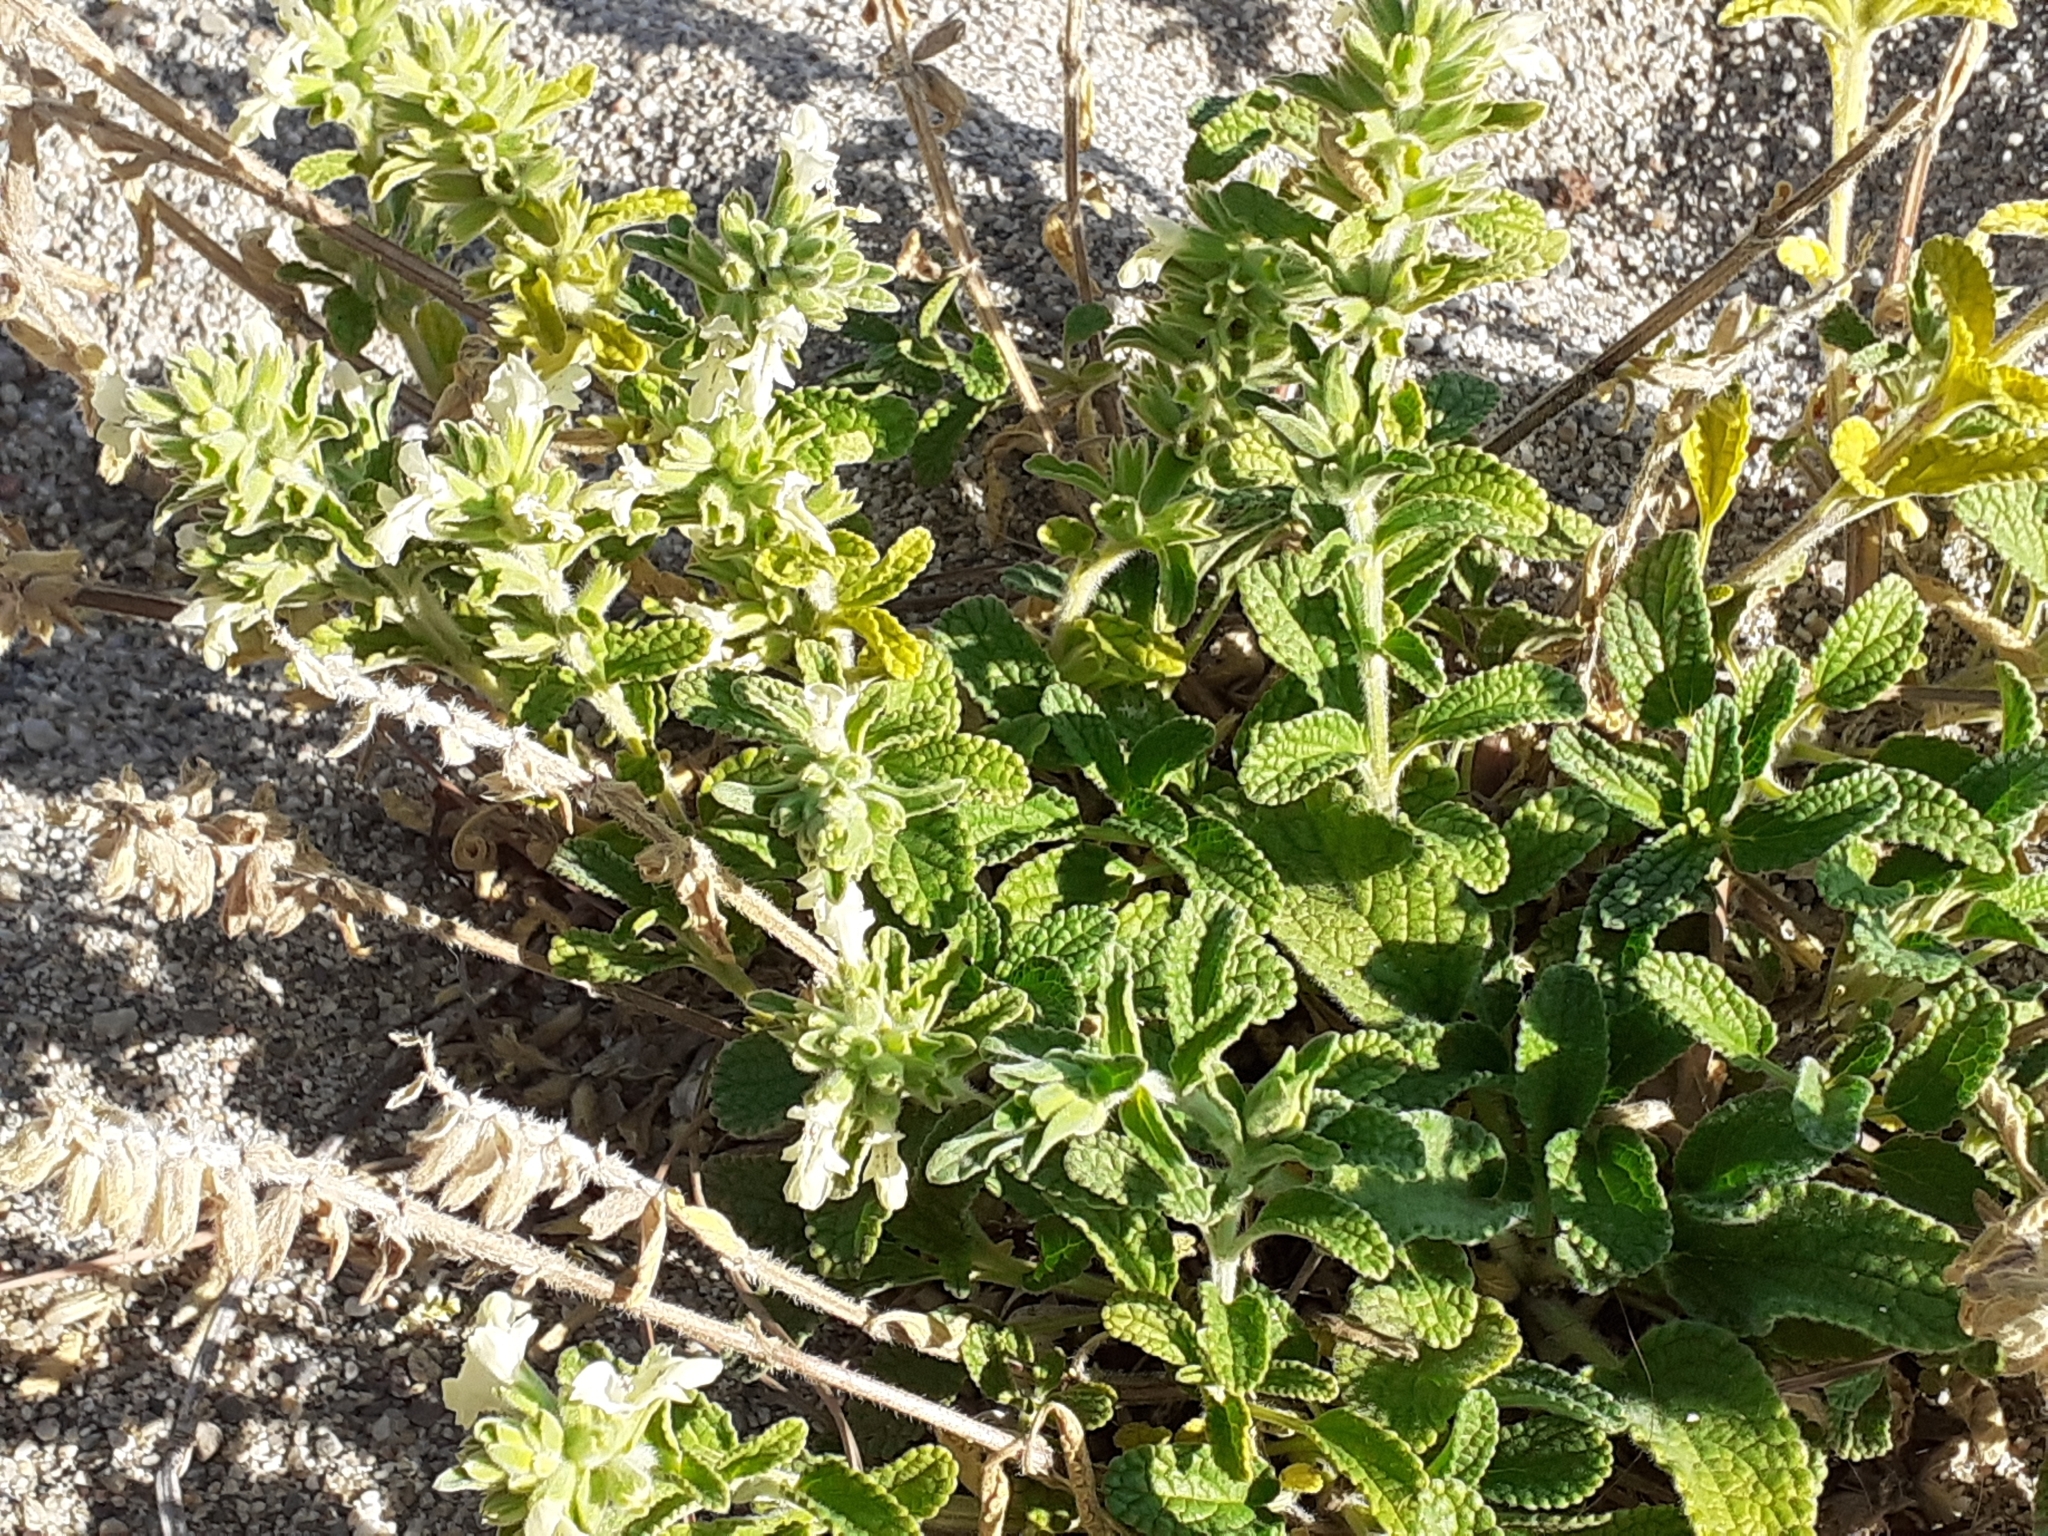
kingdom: Plantae
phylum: Tracheophyta
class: Magnoliopsida
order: Lamiales
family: Lamiaceae
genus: Sideritis
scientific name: Sideritis romana
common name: Simplebeak ironwort
